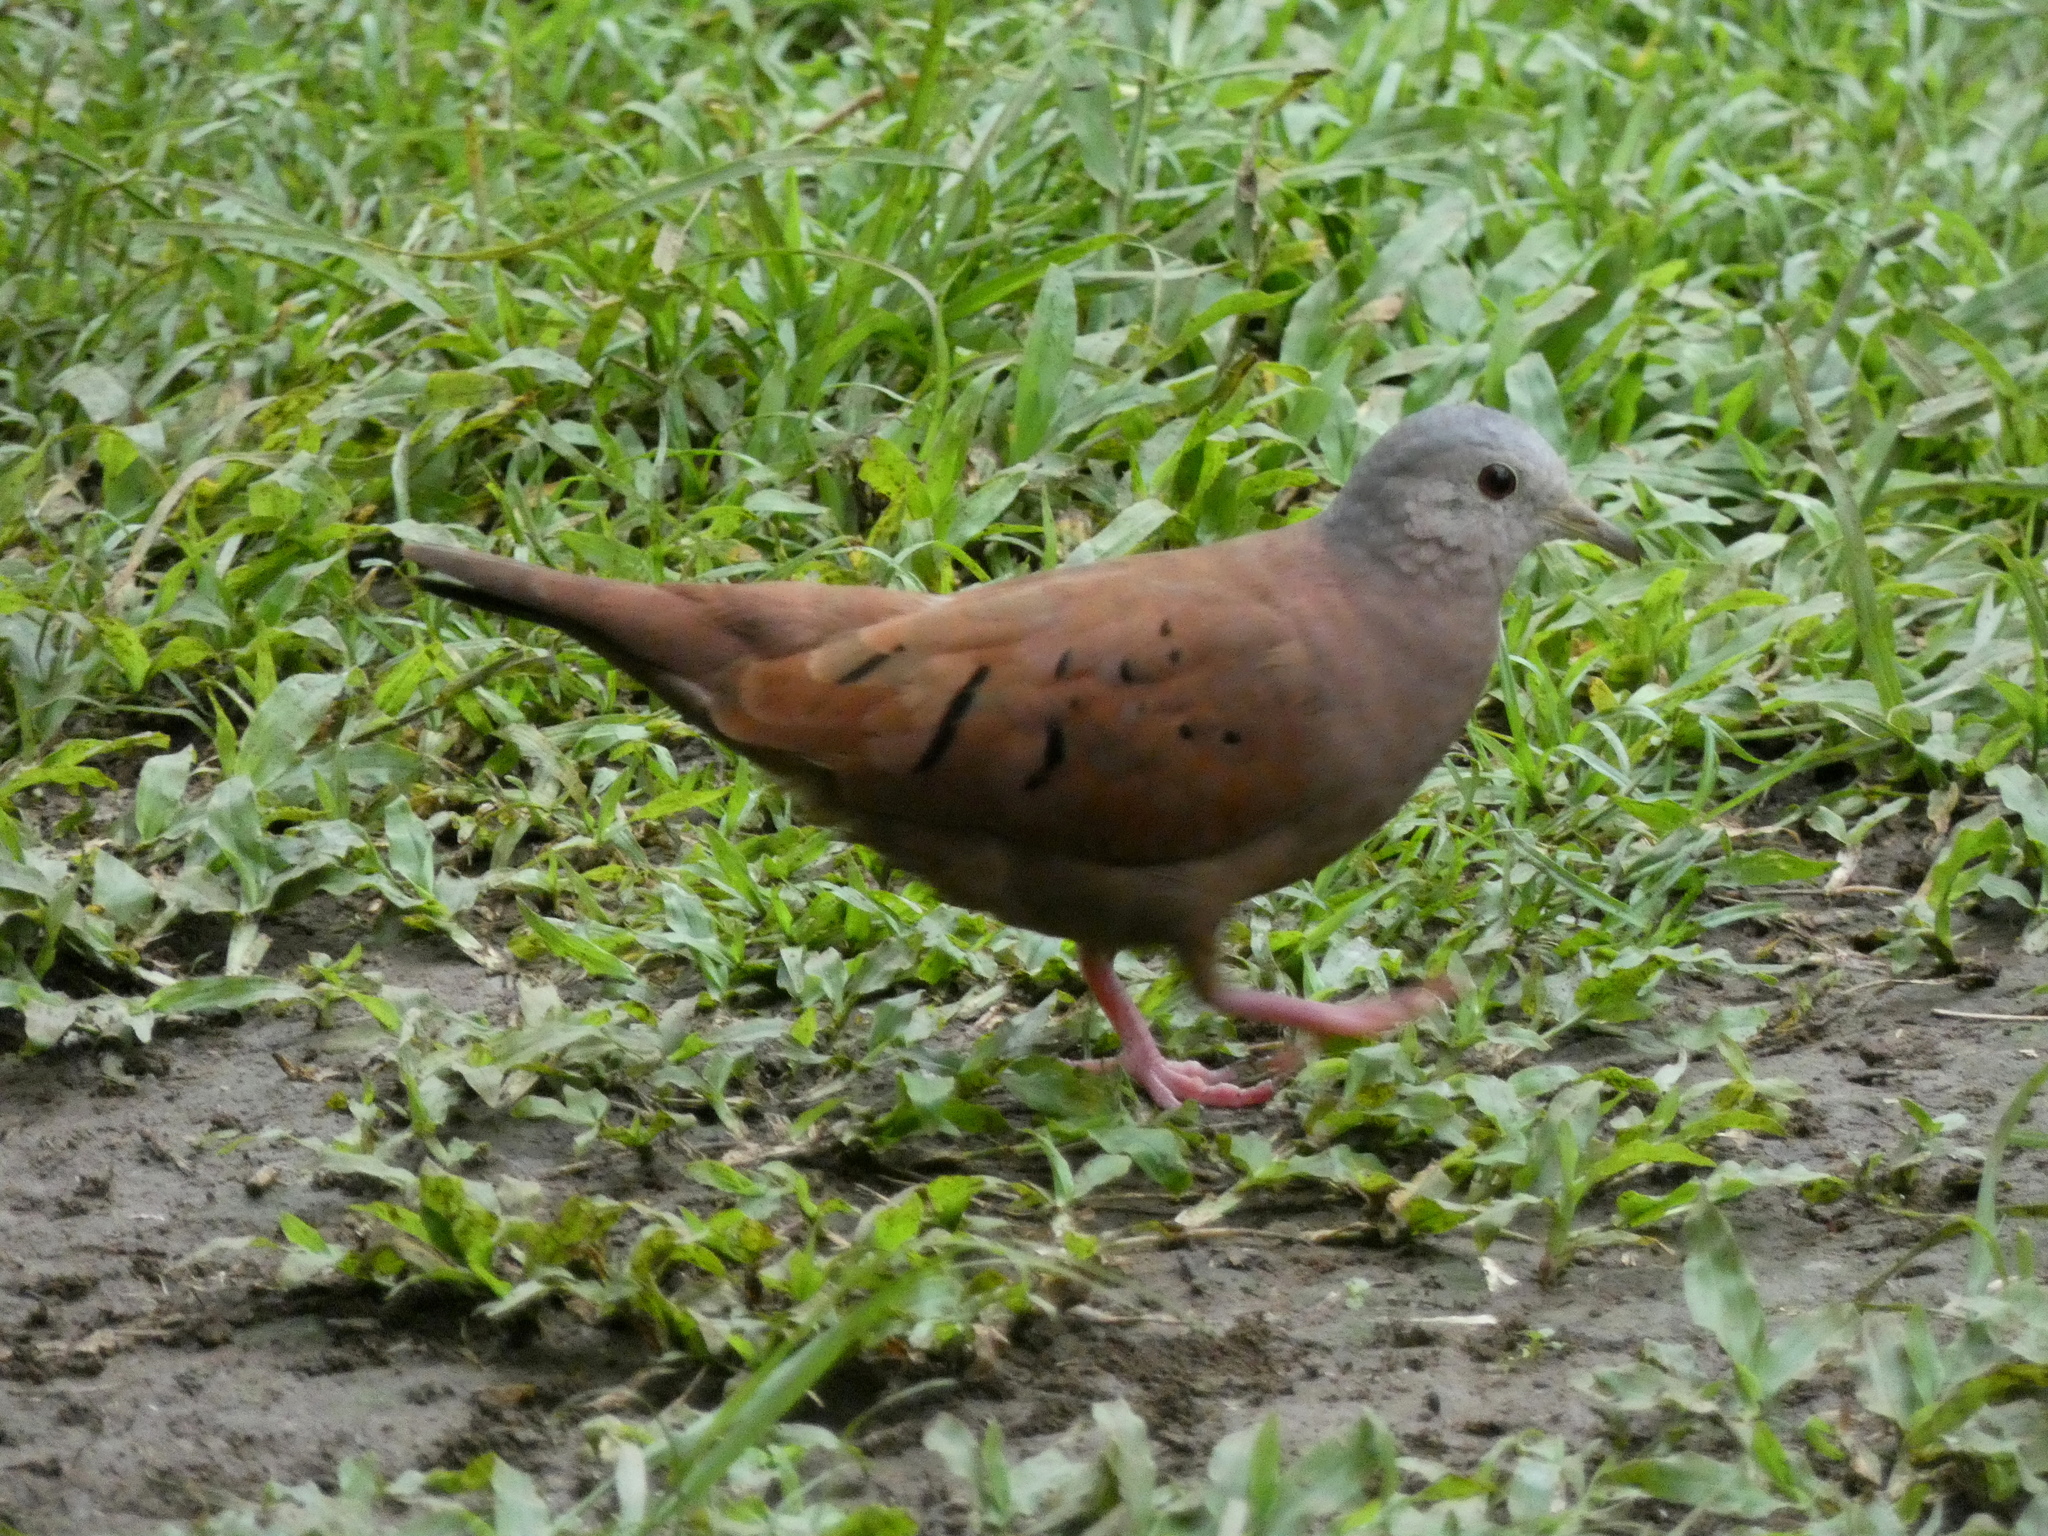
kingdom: Animalia
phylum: Chordata
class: Aves
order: Columbiformes
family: Columbidae
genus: Columbina
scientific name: Columbina talpacoti
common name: Ruddy ground dove
